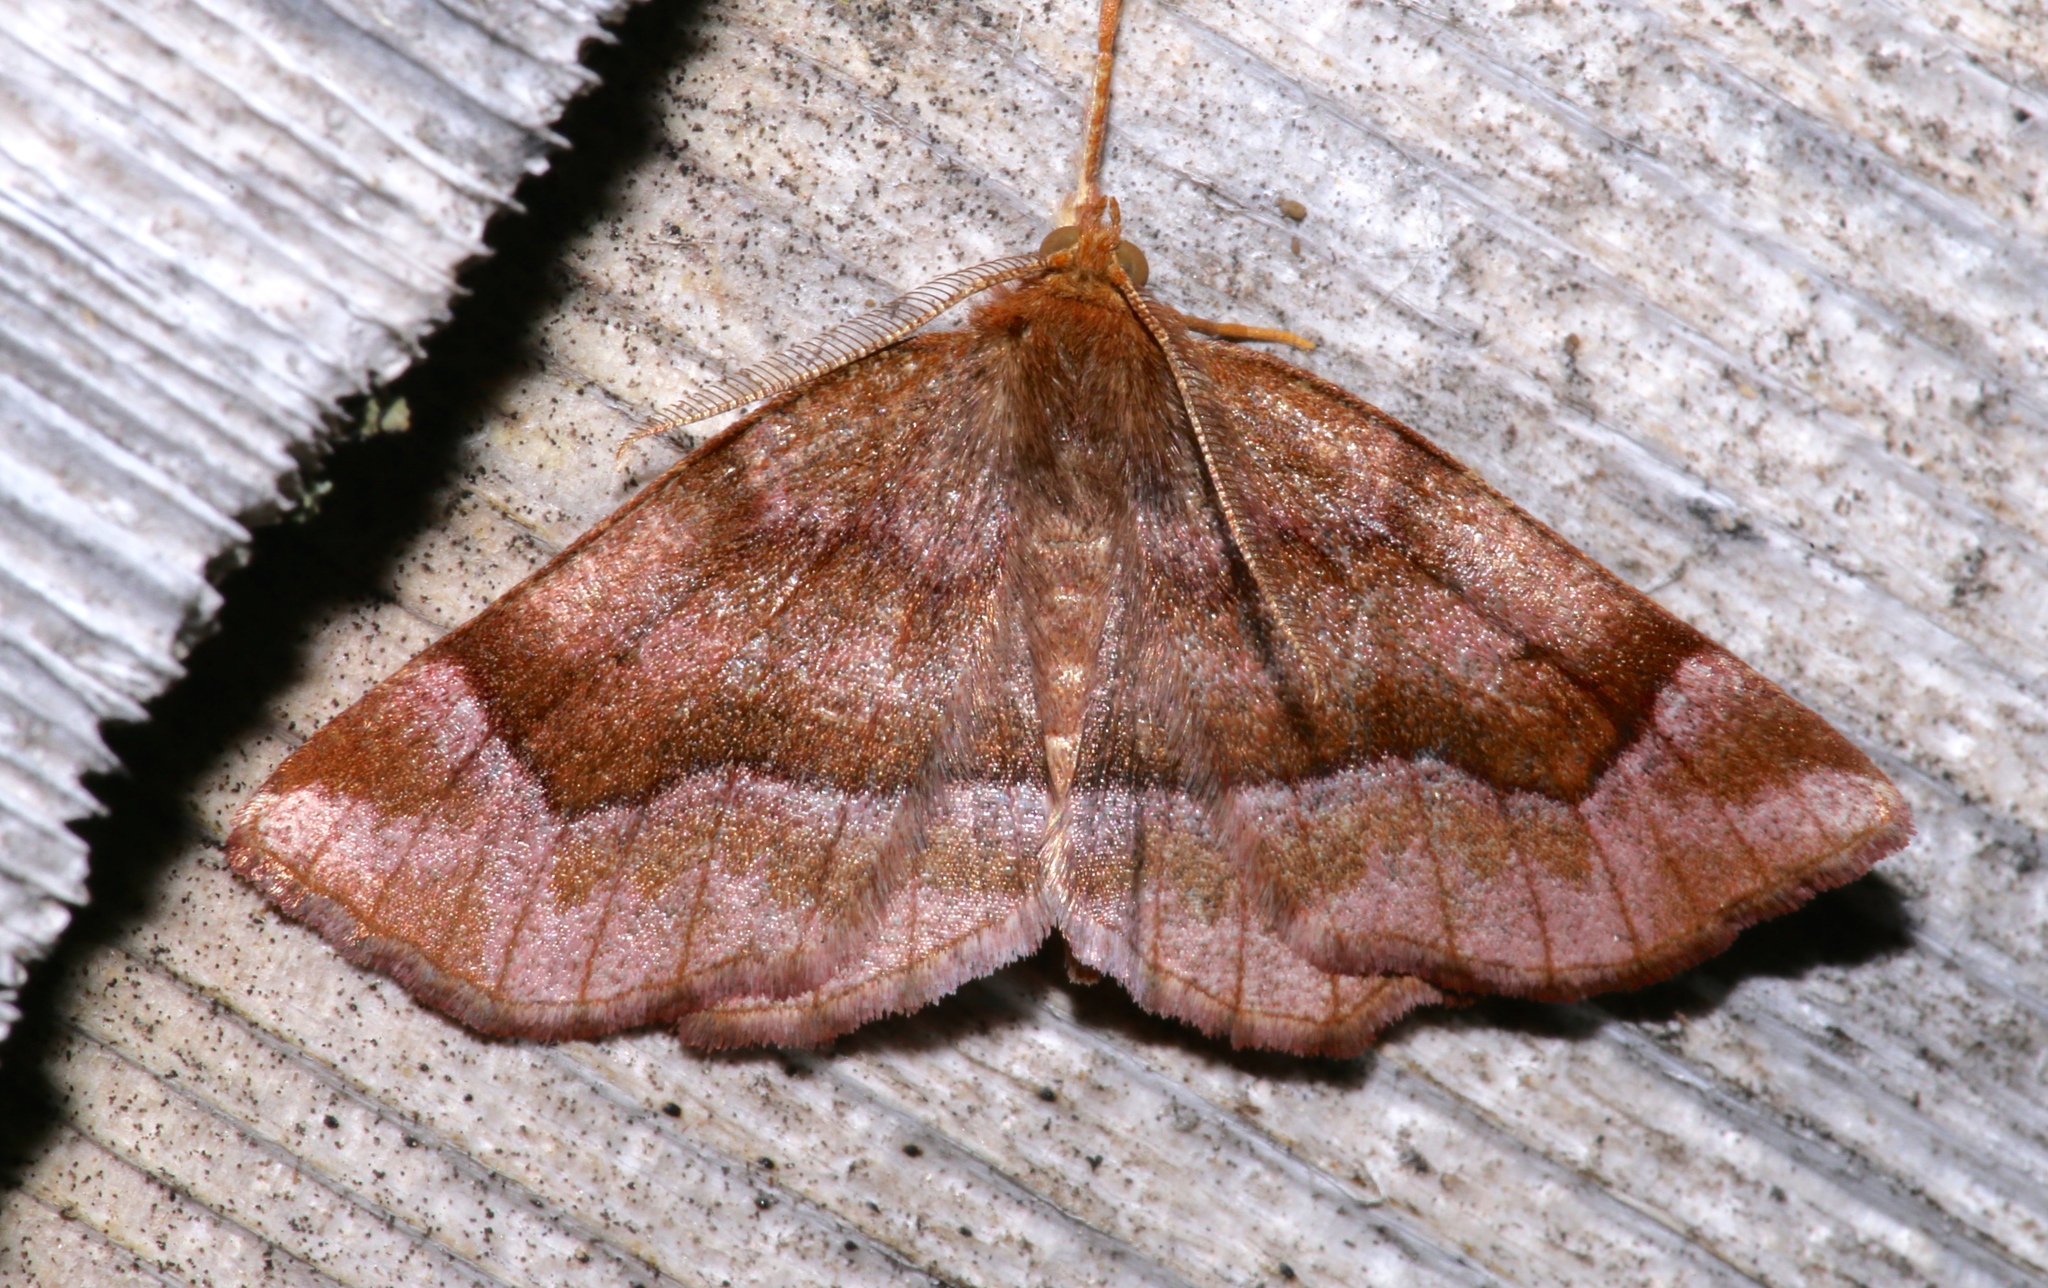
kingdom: Animalia
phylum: Arthropoda
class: Insecta
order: Lepidoptera
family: Geometridae
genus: Metarranthis
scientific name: Metarranthis refractaria
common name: Refracted metarranthis moth
